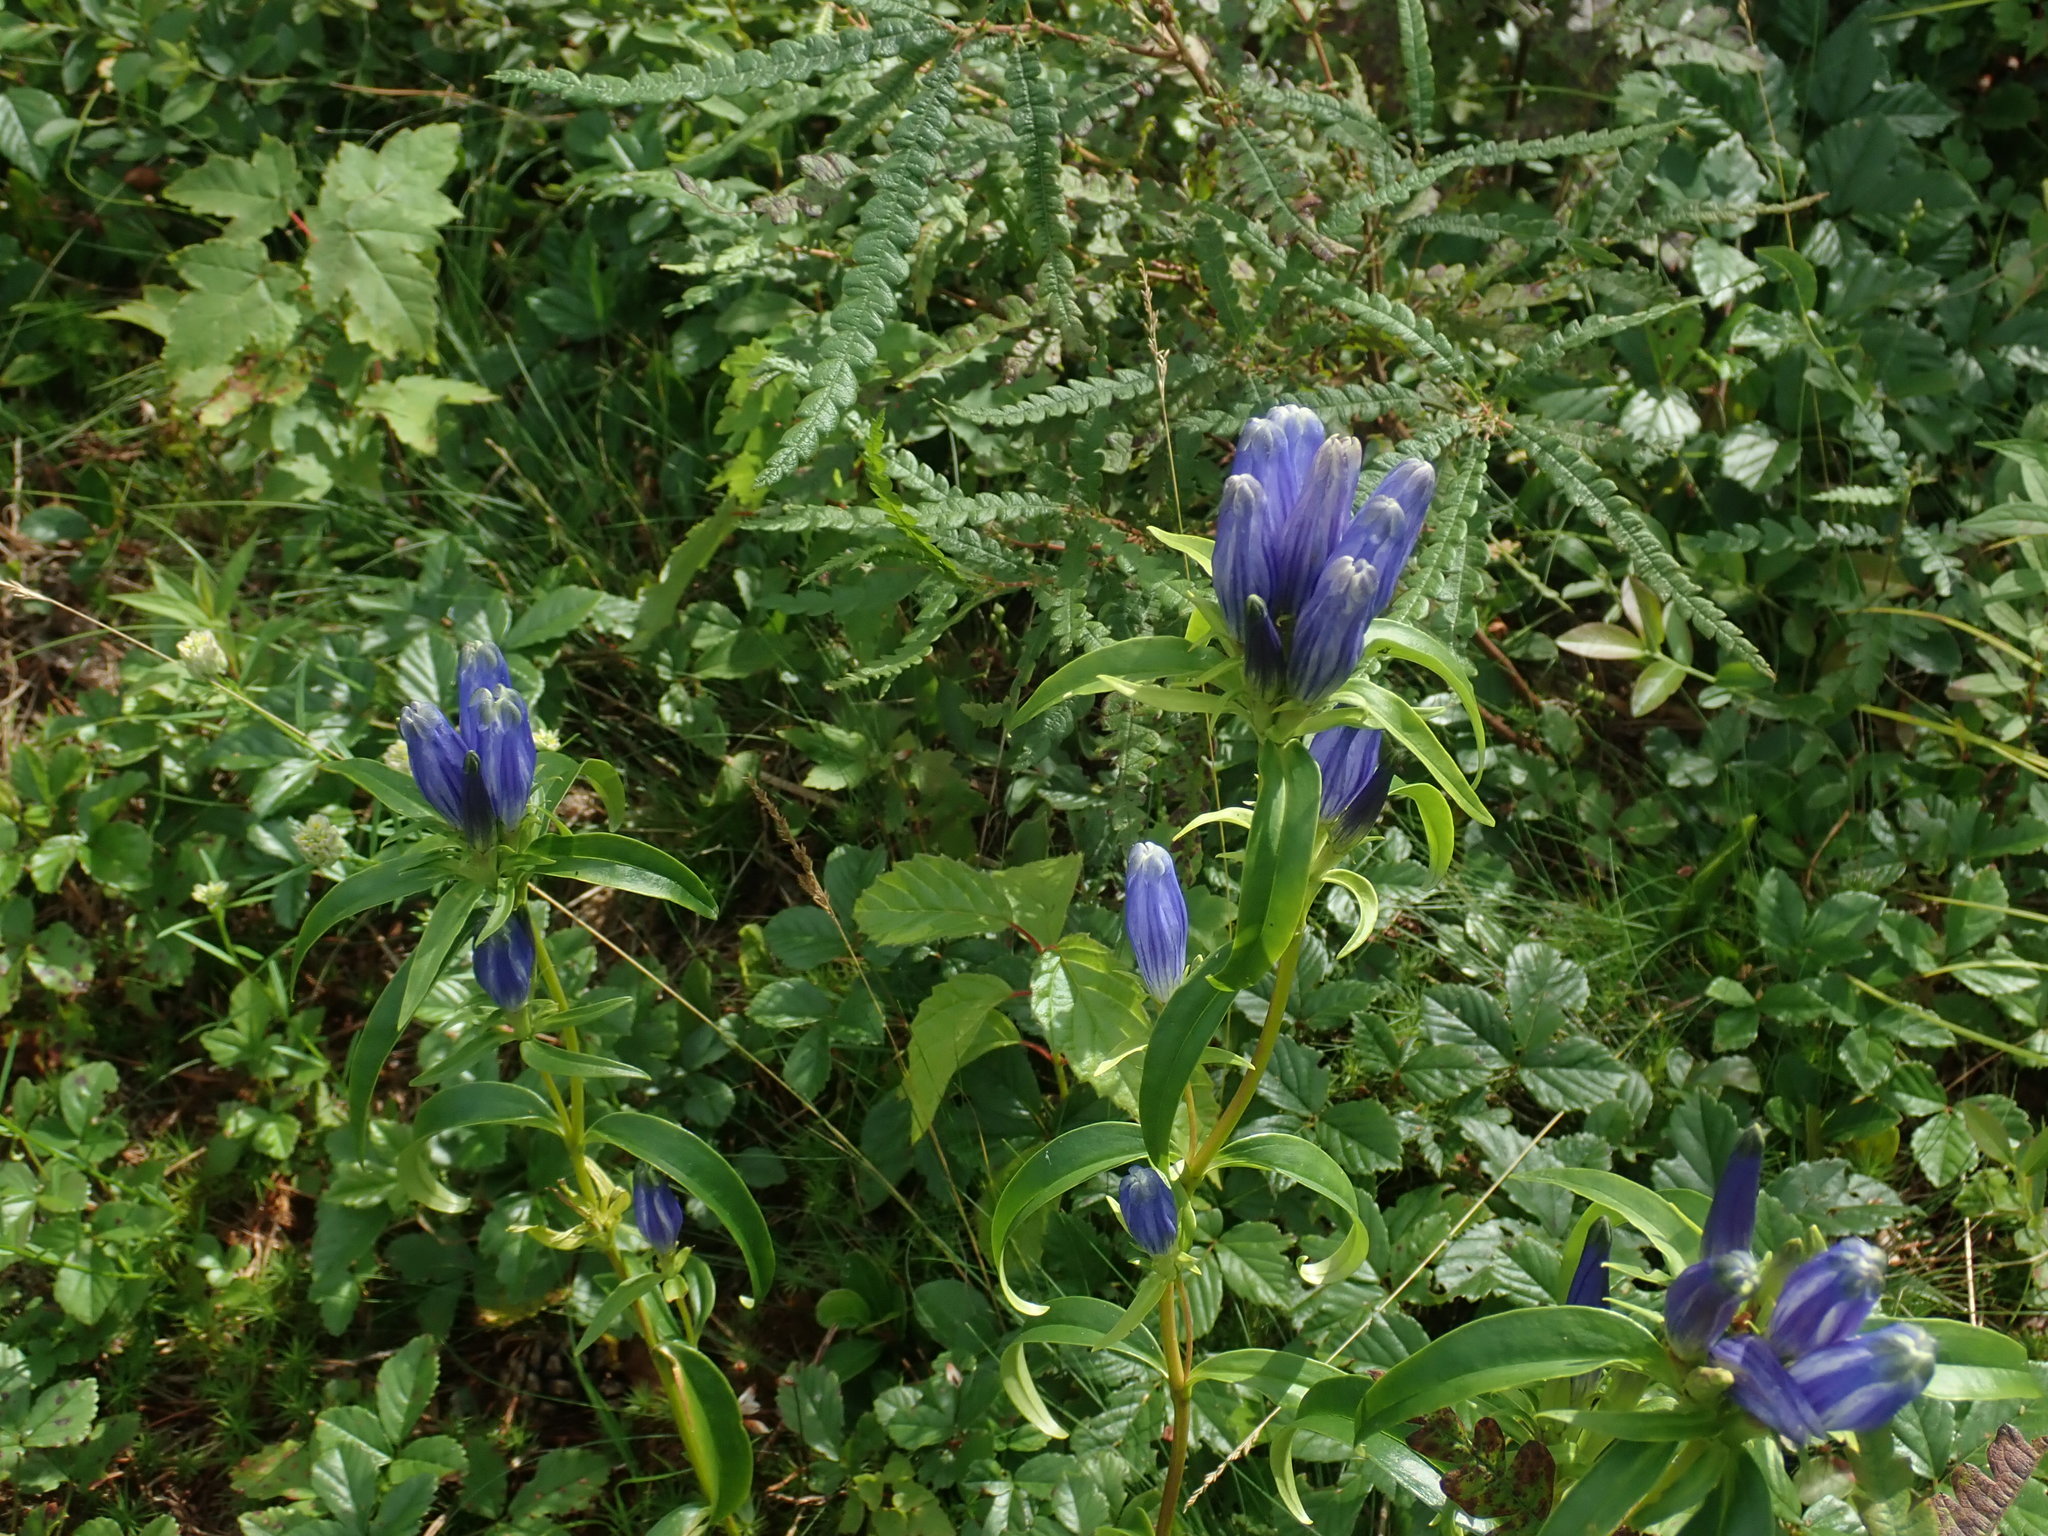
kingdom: Plantae
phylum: Tracheophyta
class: Magnoliopsida
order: Gentianales
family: Gentianaceae
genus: Gentiana
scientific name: Gentiana linearis
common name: Bastard gentian
